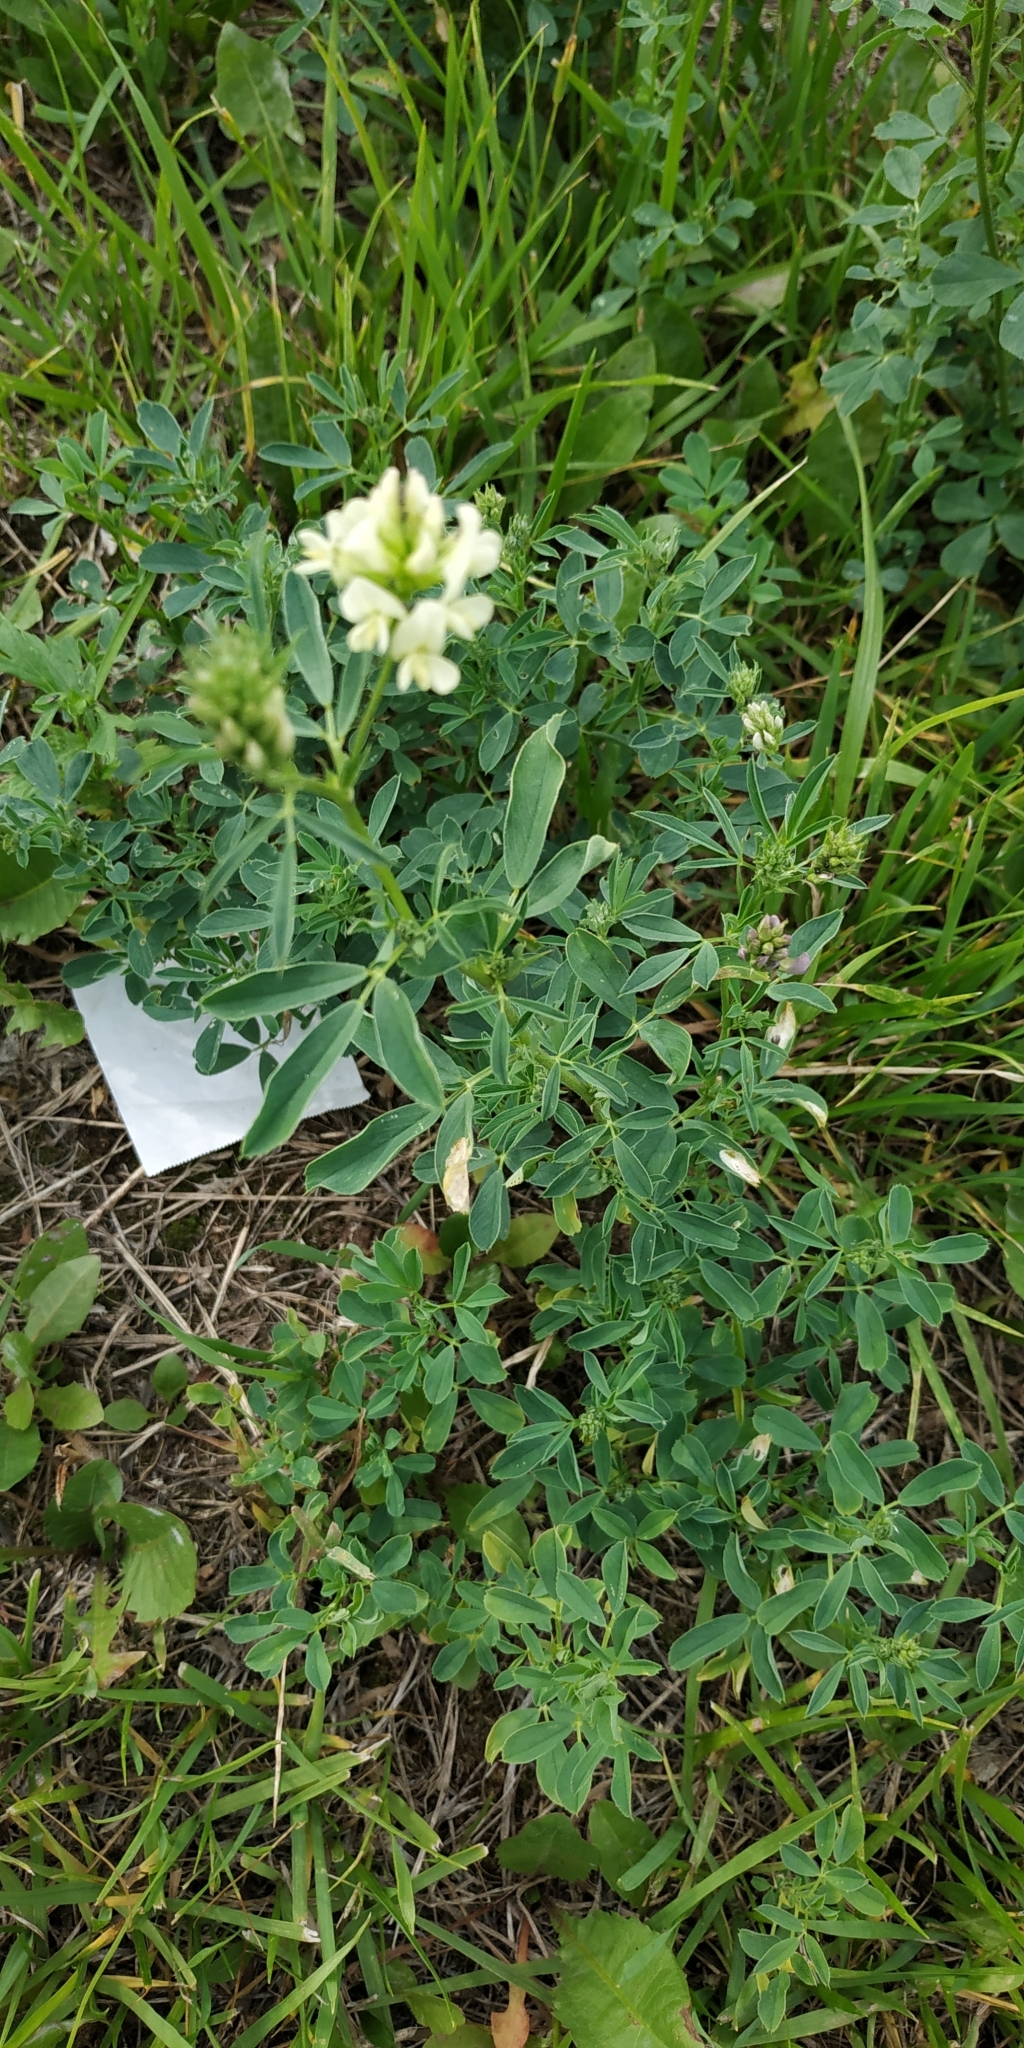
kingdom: Plantae
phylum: Tracheophyta
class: Magnoliopsida
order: Fabales
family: Fabaceae
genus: Medicago
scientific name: Medicago varia
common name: Sand lucerne
